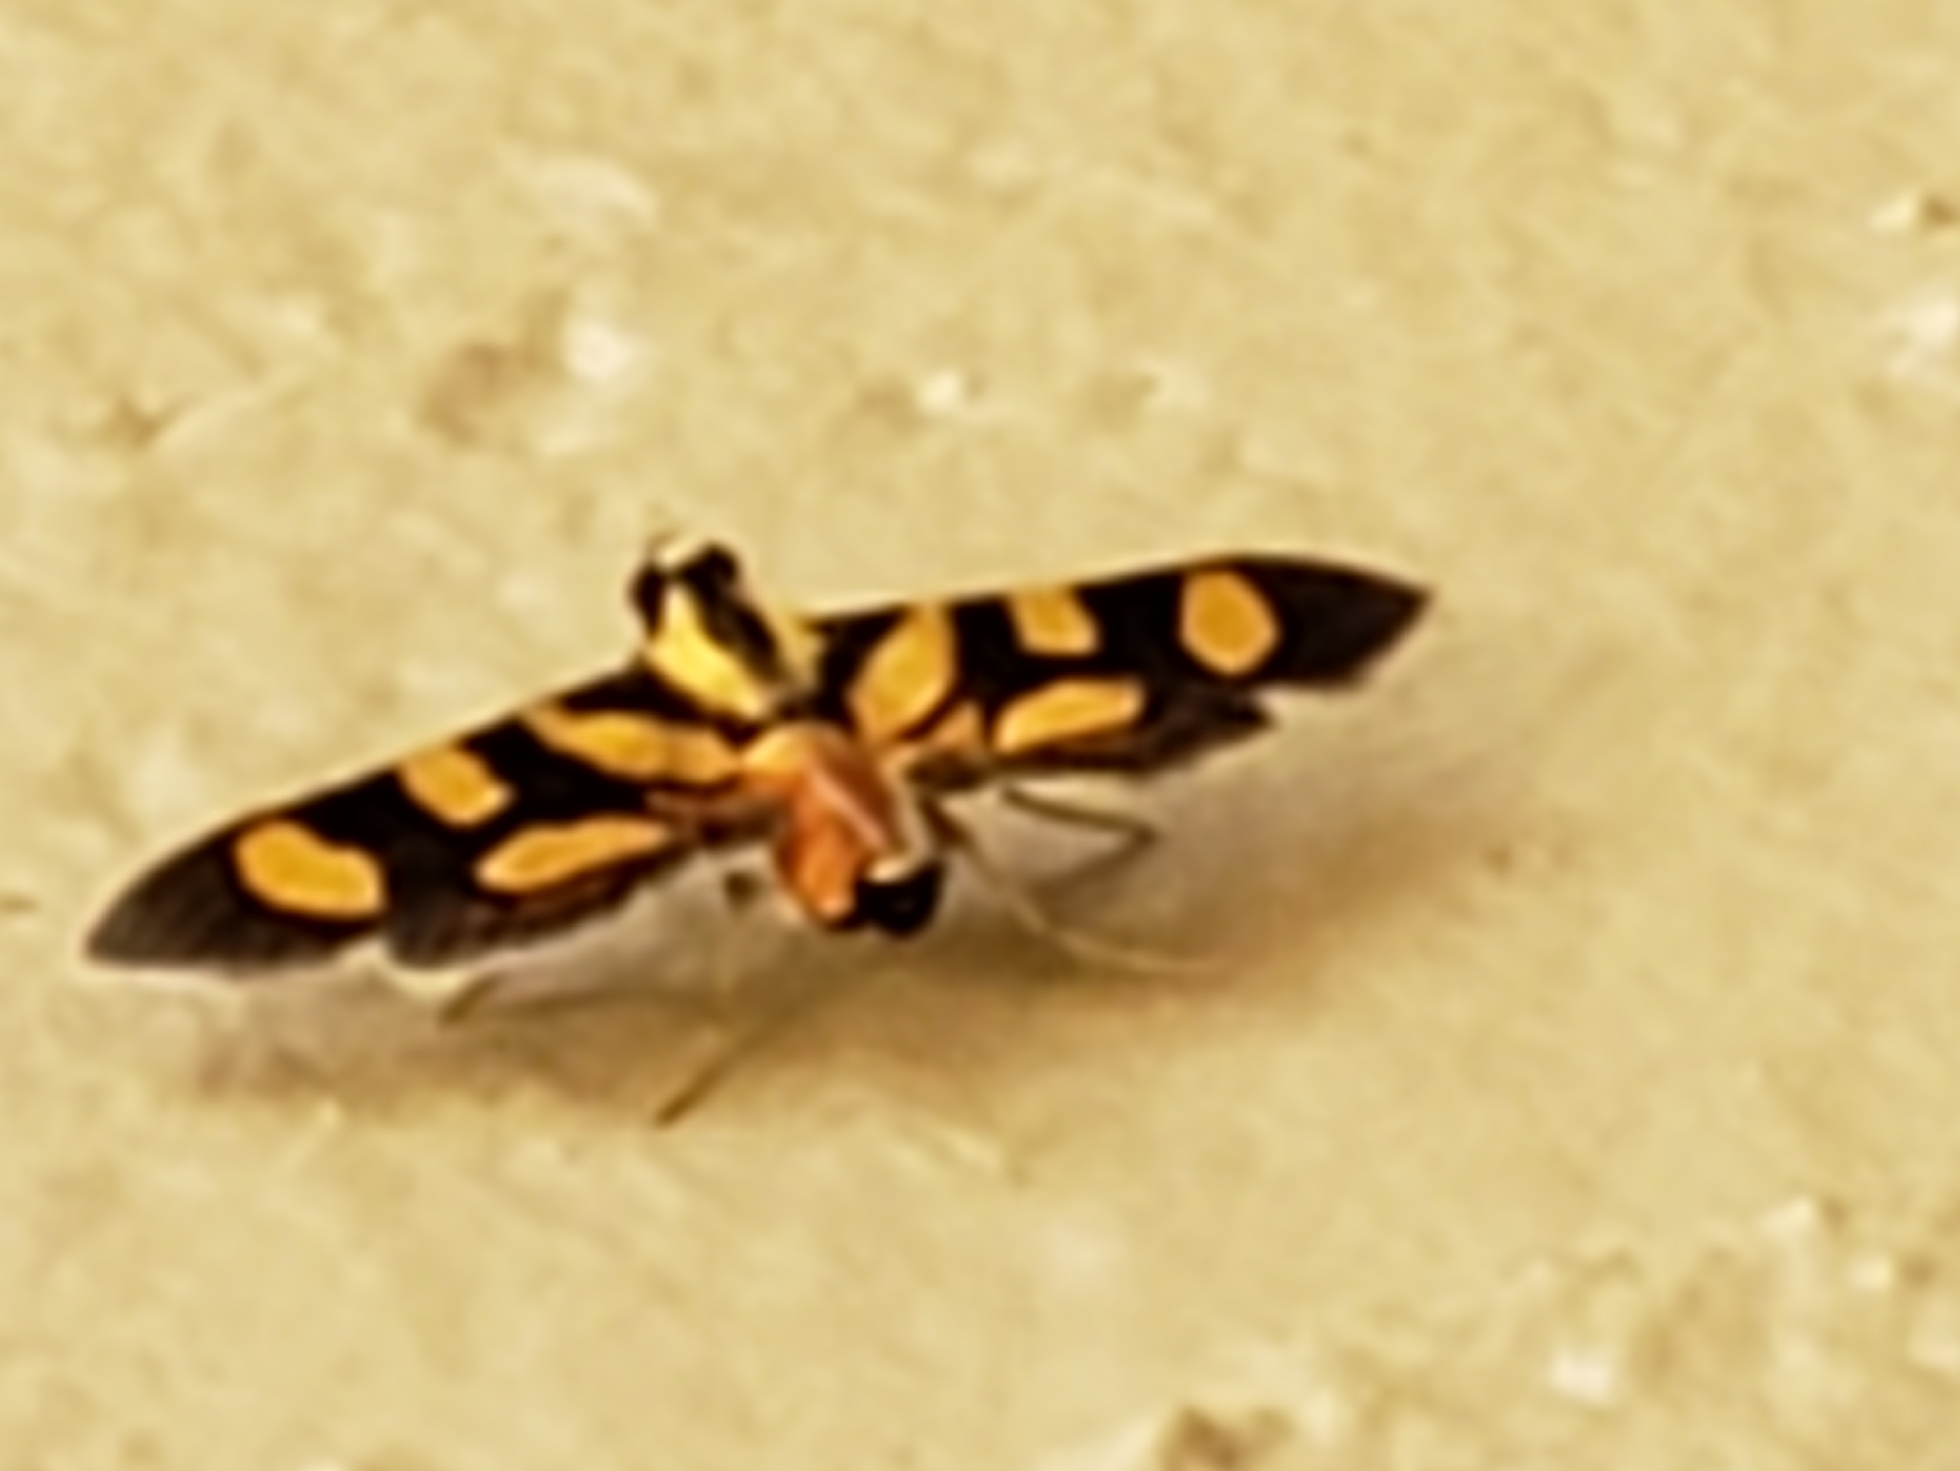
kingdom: Animalia
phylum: Arthropoda
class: Insecta
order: Lepidoptera
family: Crambidae
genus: Syngamia
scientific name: Syngamia florella
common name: Orange-spotted flower moth
